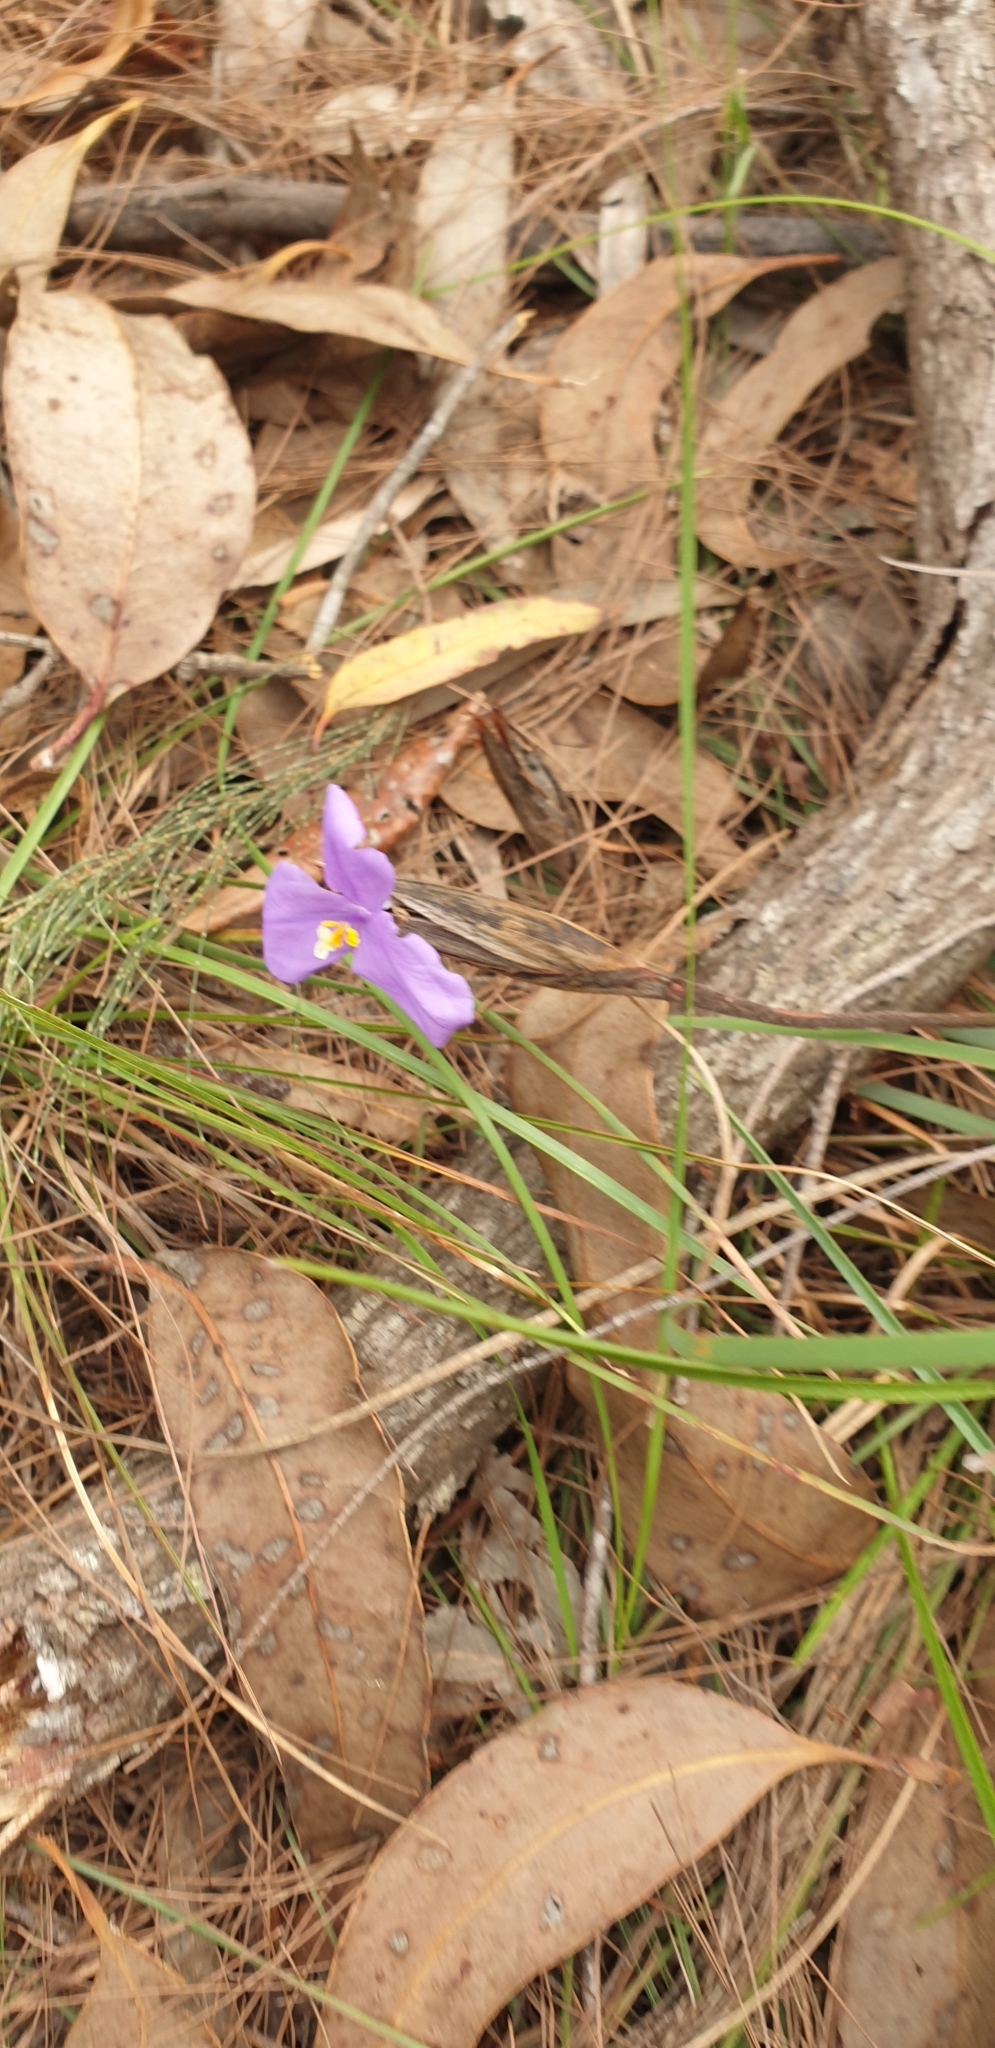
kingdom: Plantae
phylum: Tracheophyta
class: Liliopsida
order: Asparagales
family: Iridaceae
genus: Patersonia
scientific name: Patersonia sericea
